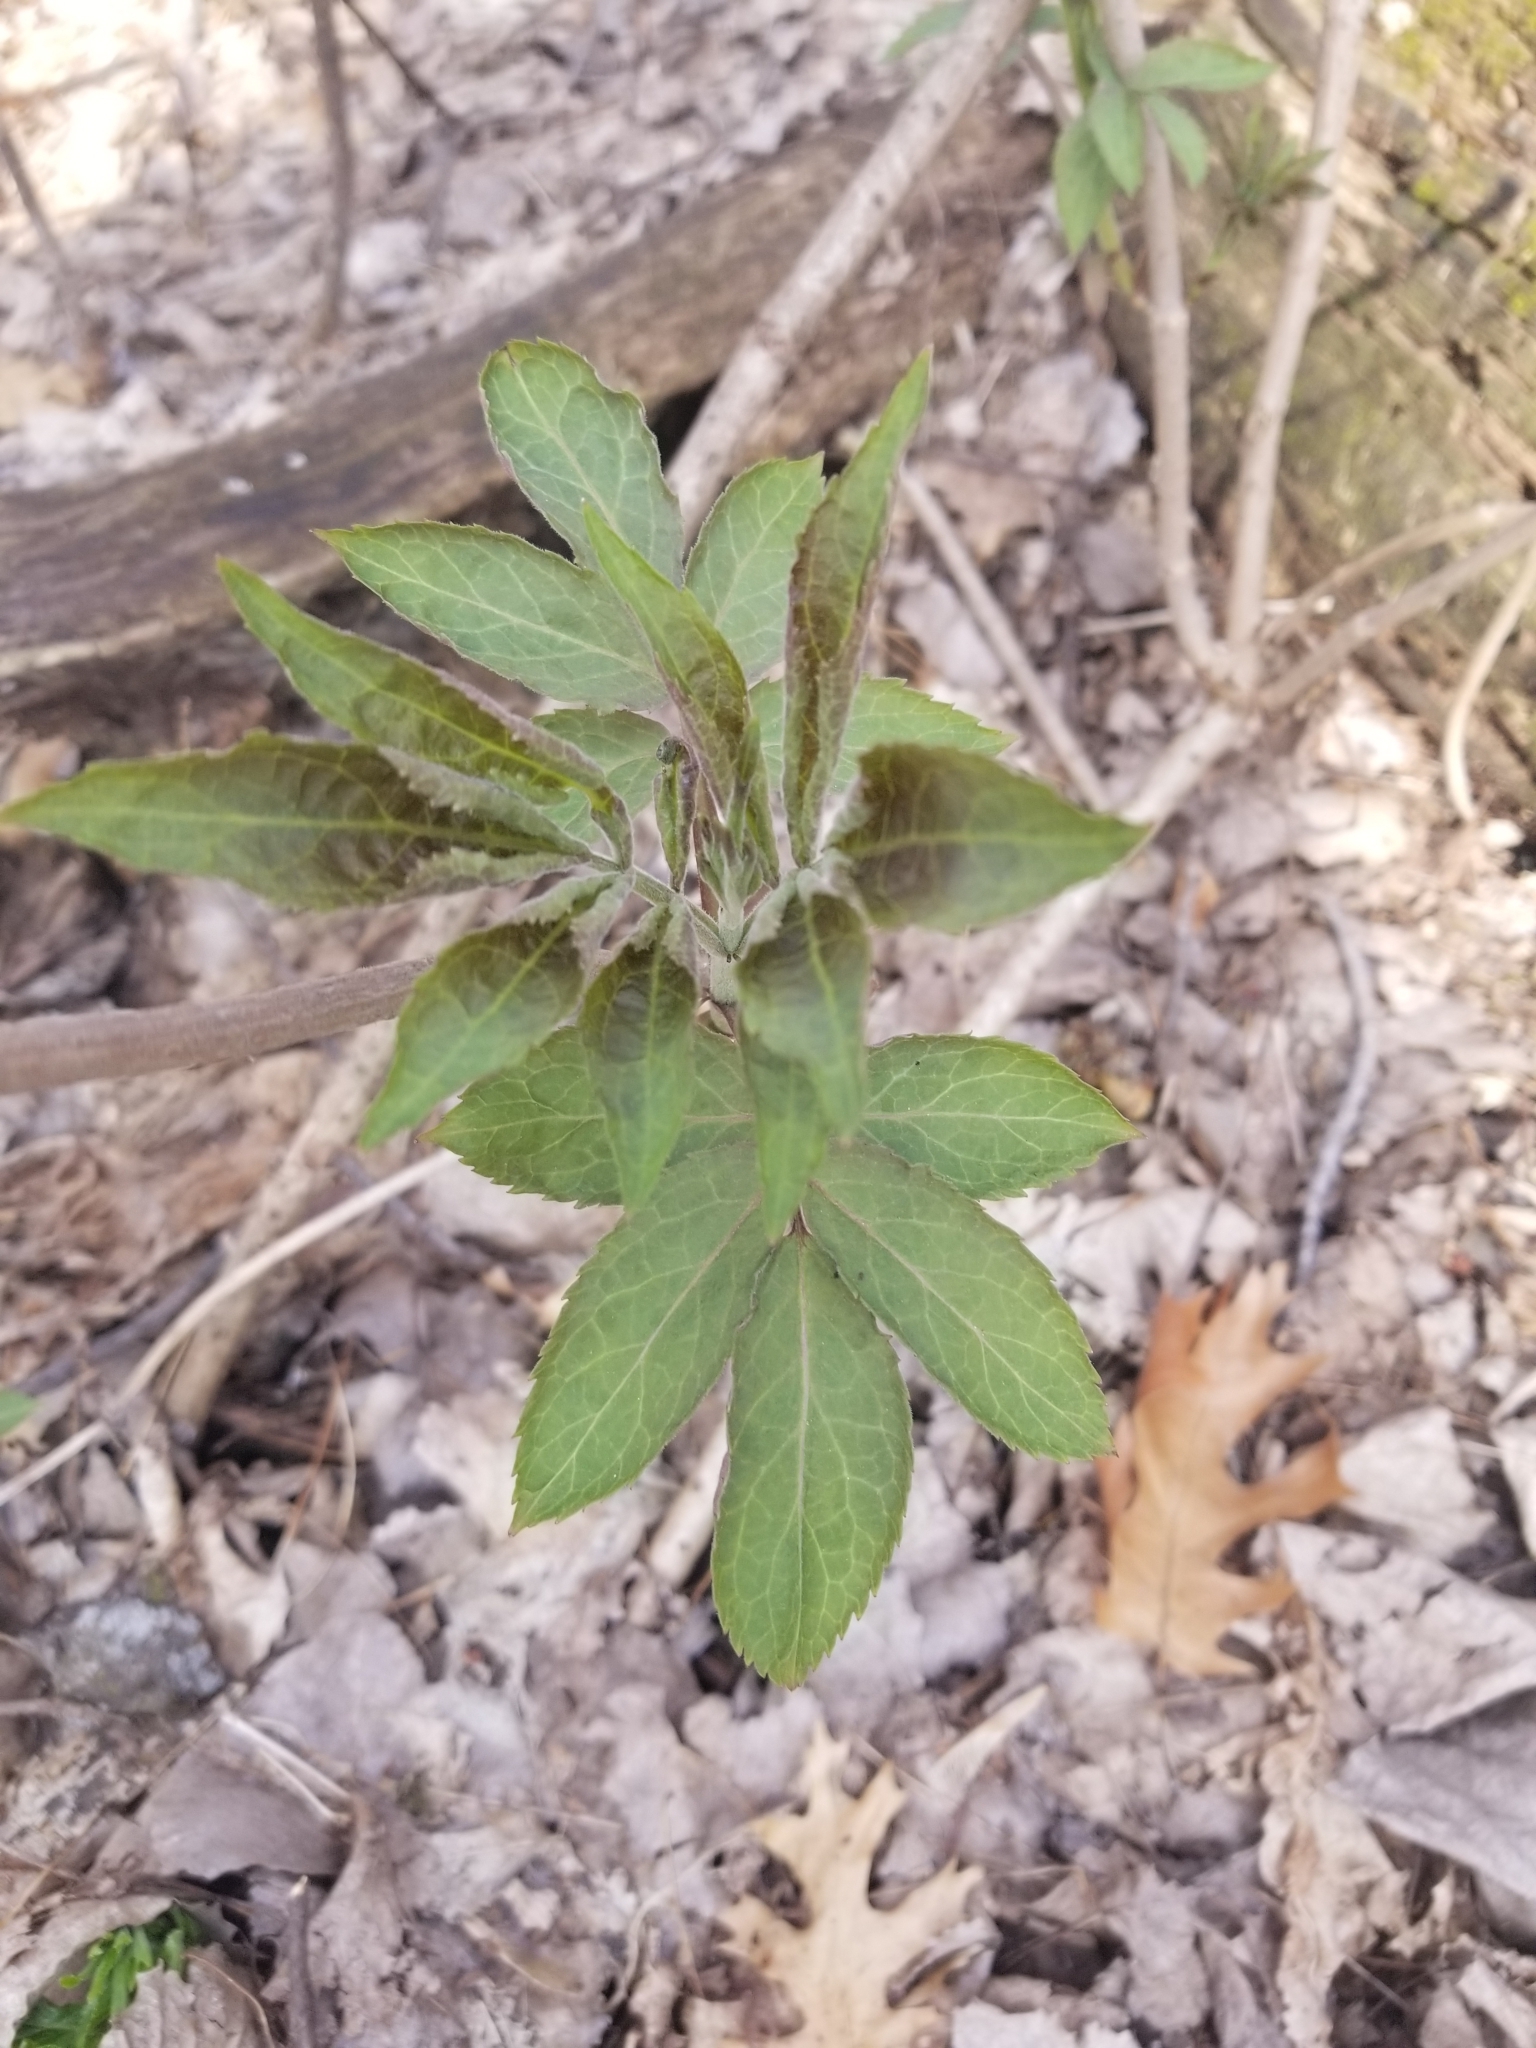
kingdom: Plantae
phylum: Tracheophyta
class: Magnoliopsida
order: Dipsacales
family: Viburnaceae
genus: Sambucus
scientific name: Sambucus
